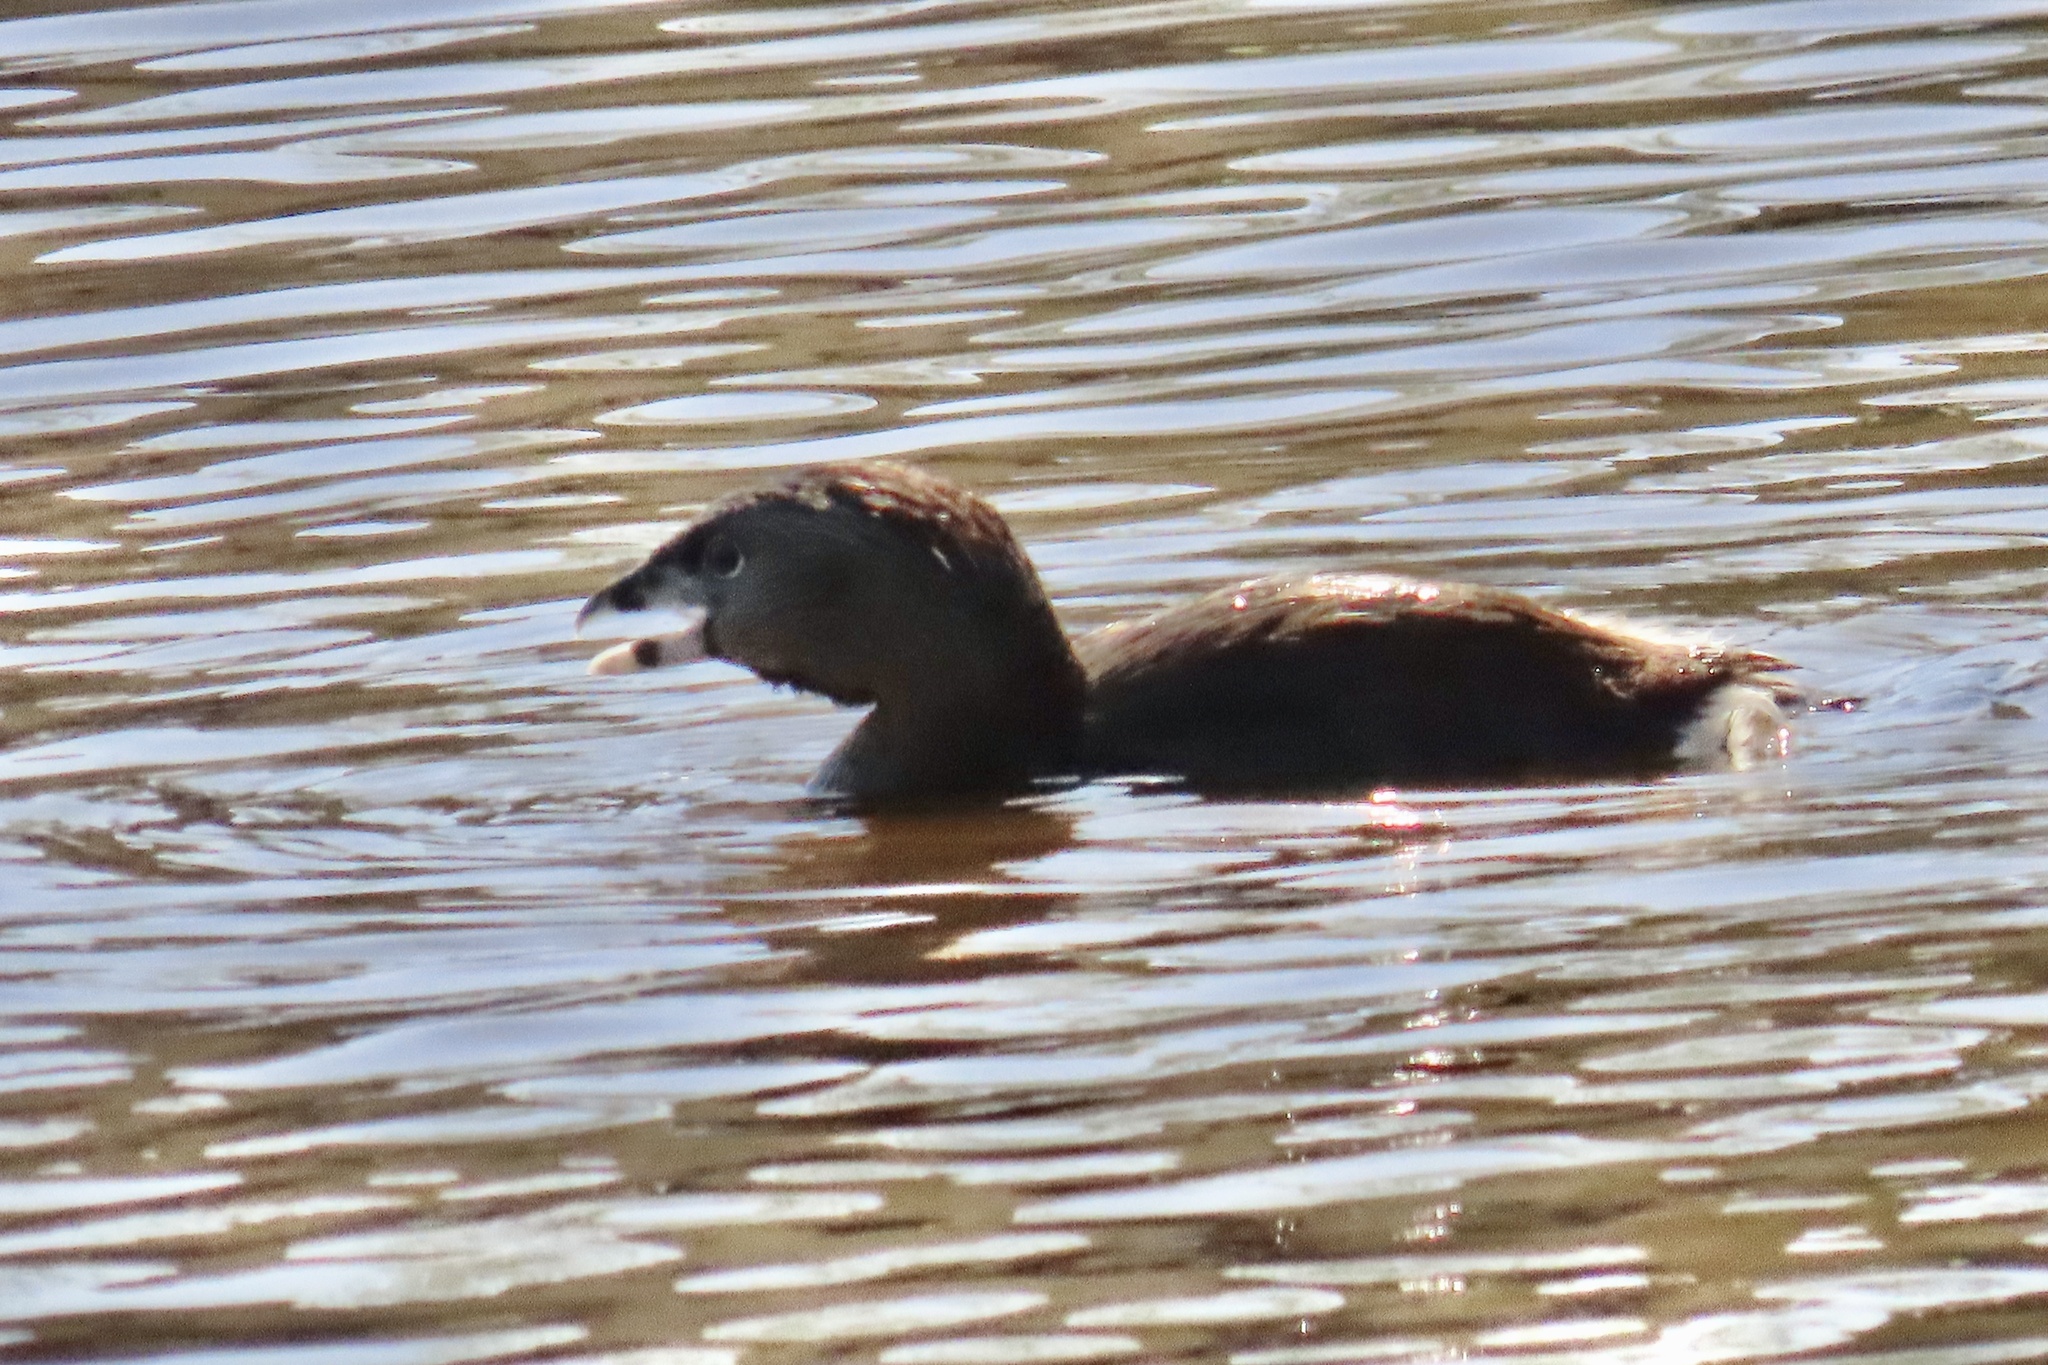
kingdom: Animalia
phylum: Chordata
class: Aves
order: Podicipediformes
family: Podicipedidae
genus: Podilymbus
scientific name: Podilymbus podiceps
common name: Pied-billed grebe
